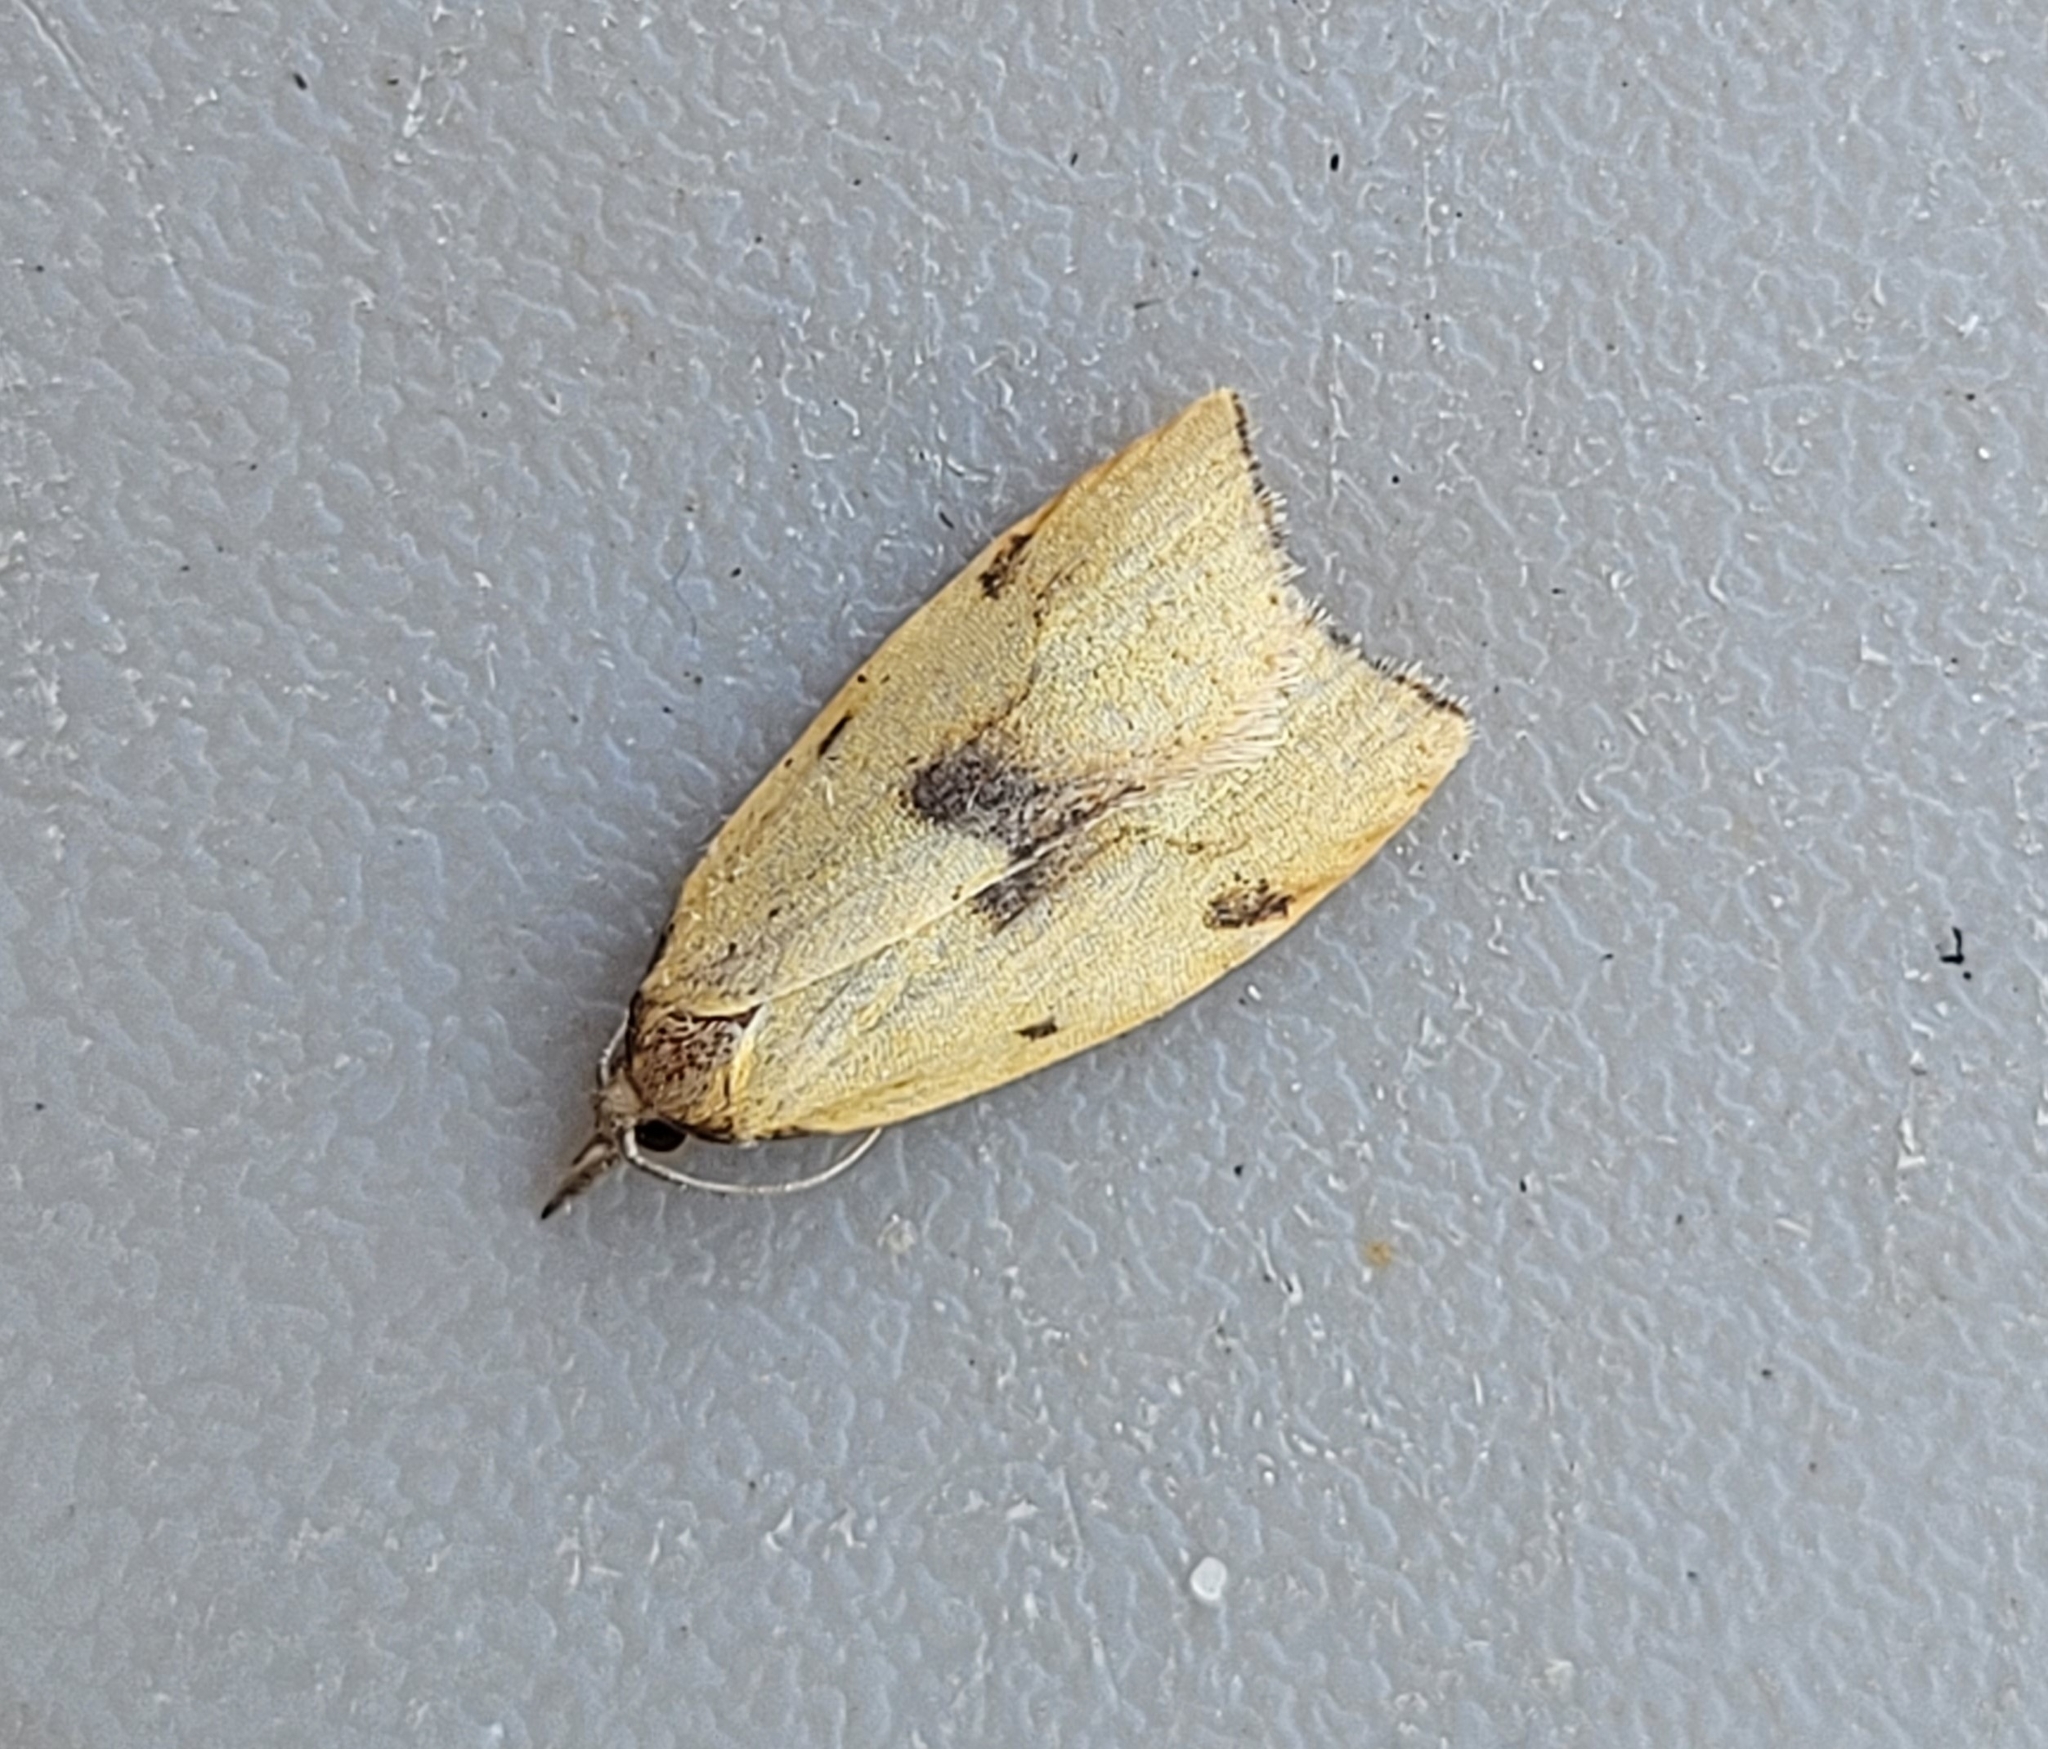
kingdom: Animalia
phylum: Arthropoda
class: Insecta
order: Lepidoptera
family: Tortricidae
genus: Sparganothis
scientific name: Sparganothis xanthoides
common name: Mosaic sparganothis moth
